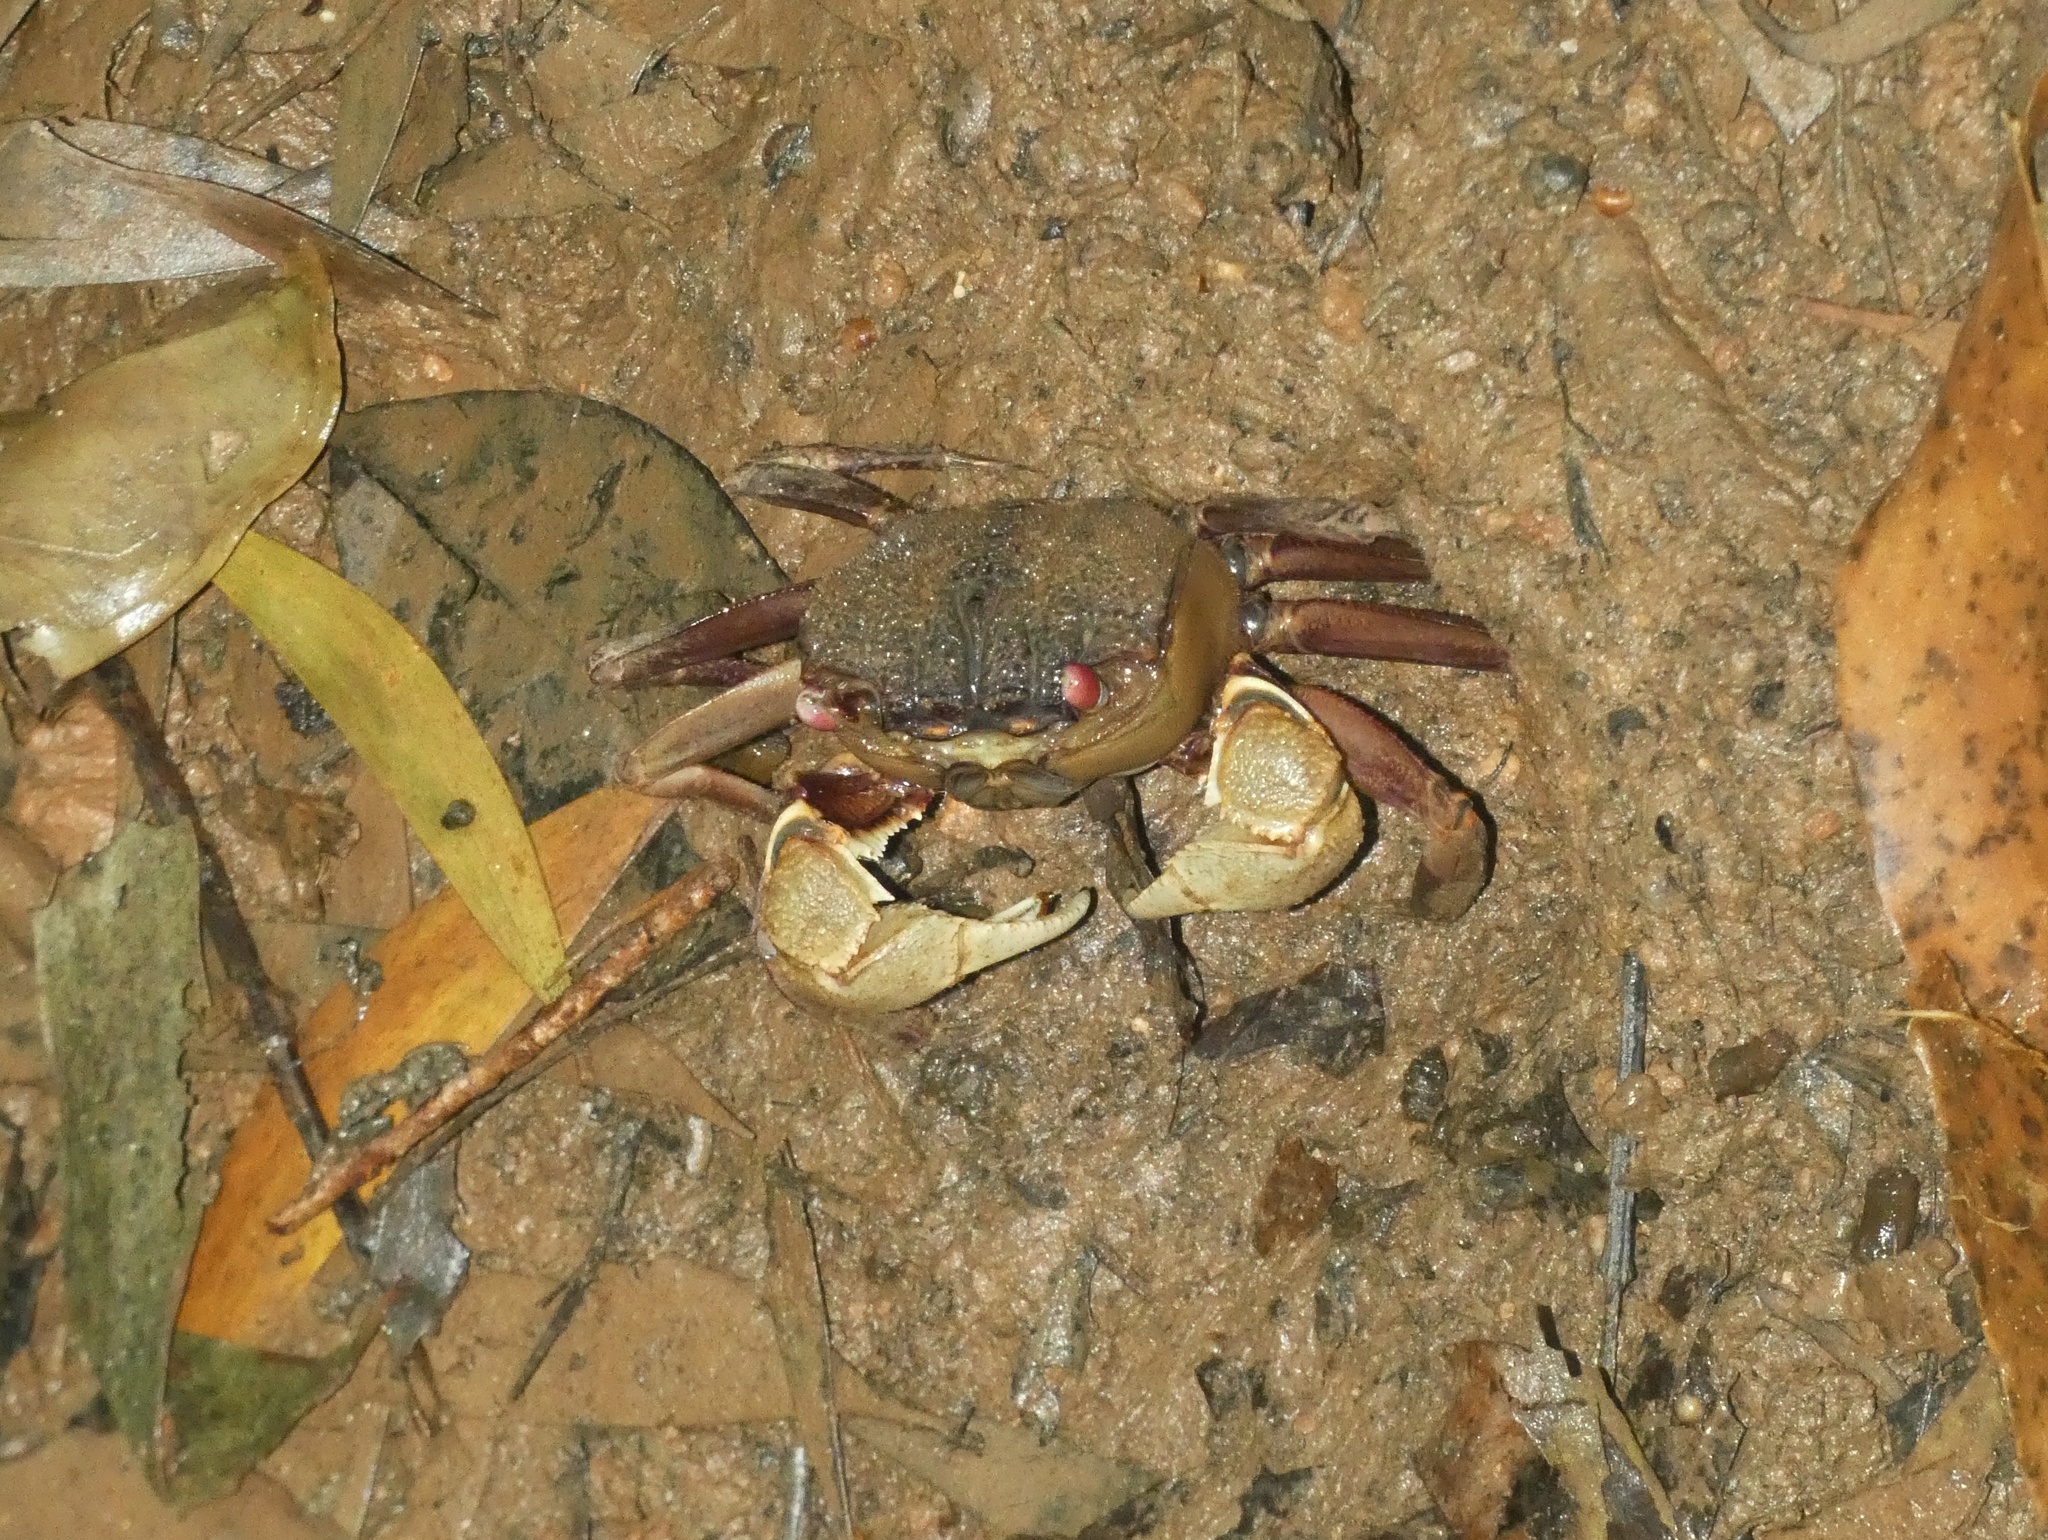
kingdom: Animalia
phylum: Arthropoda
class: Malacostraca
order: Decapoda
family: Sesarmidae
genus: Tiomanium
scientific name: Tiomanium indicum
